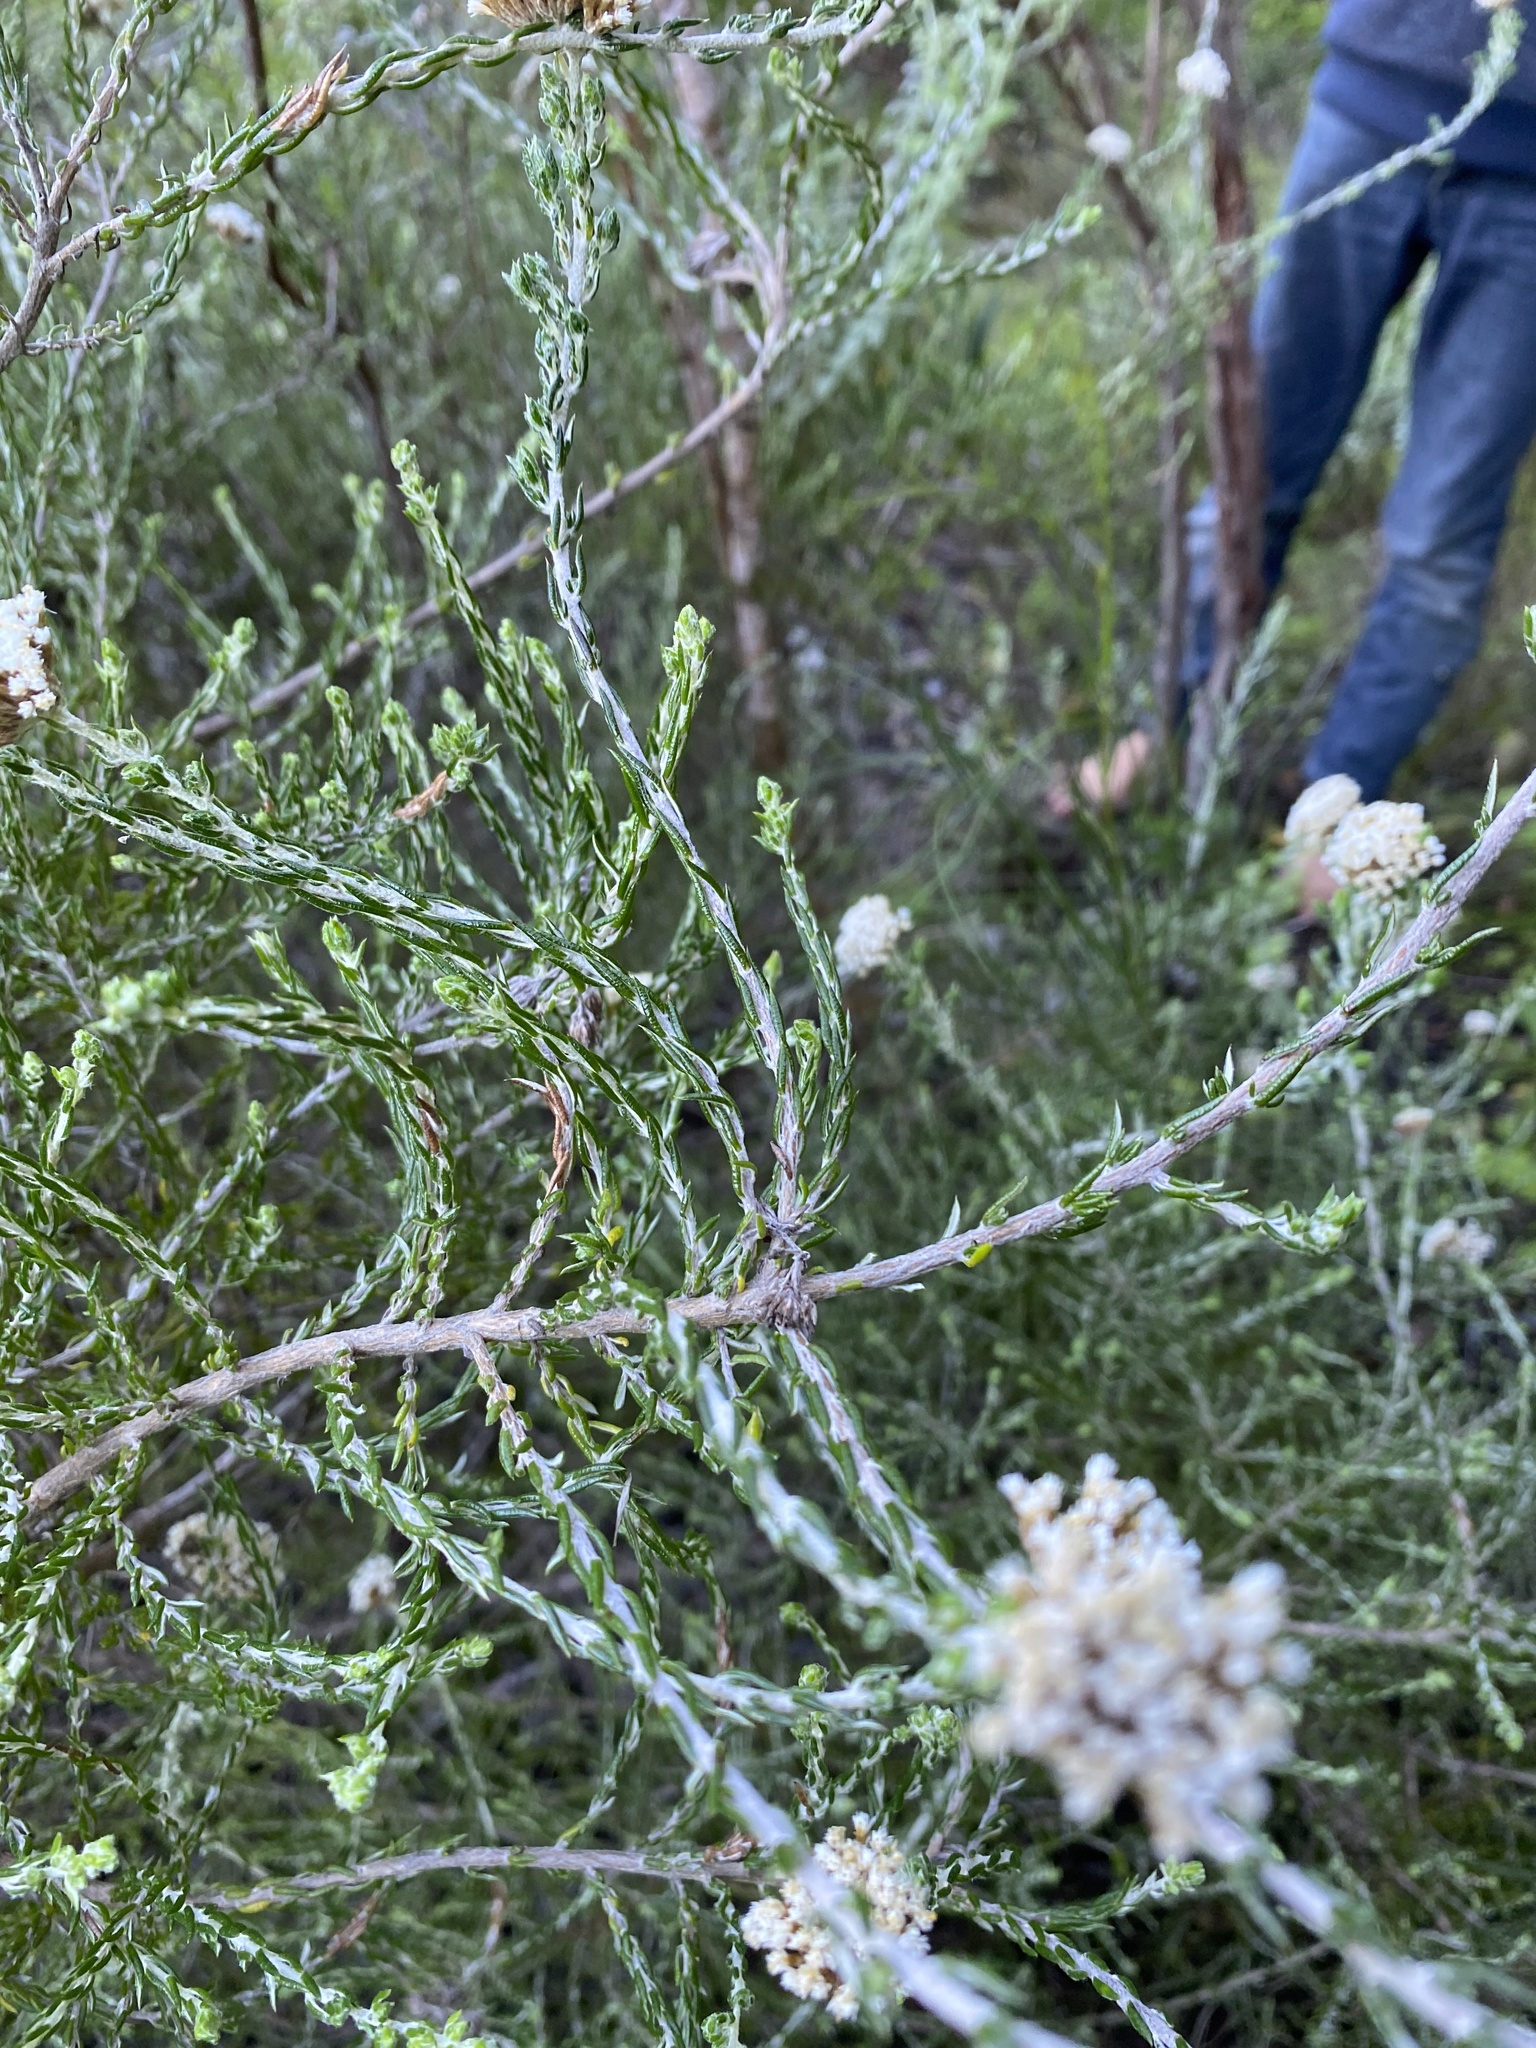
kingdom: Plantae
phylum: Tracheophyta
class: Magnoliopsida
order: Asterales
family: Asteraceae
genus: Metalasia
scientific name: Metalasia pungens
